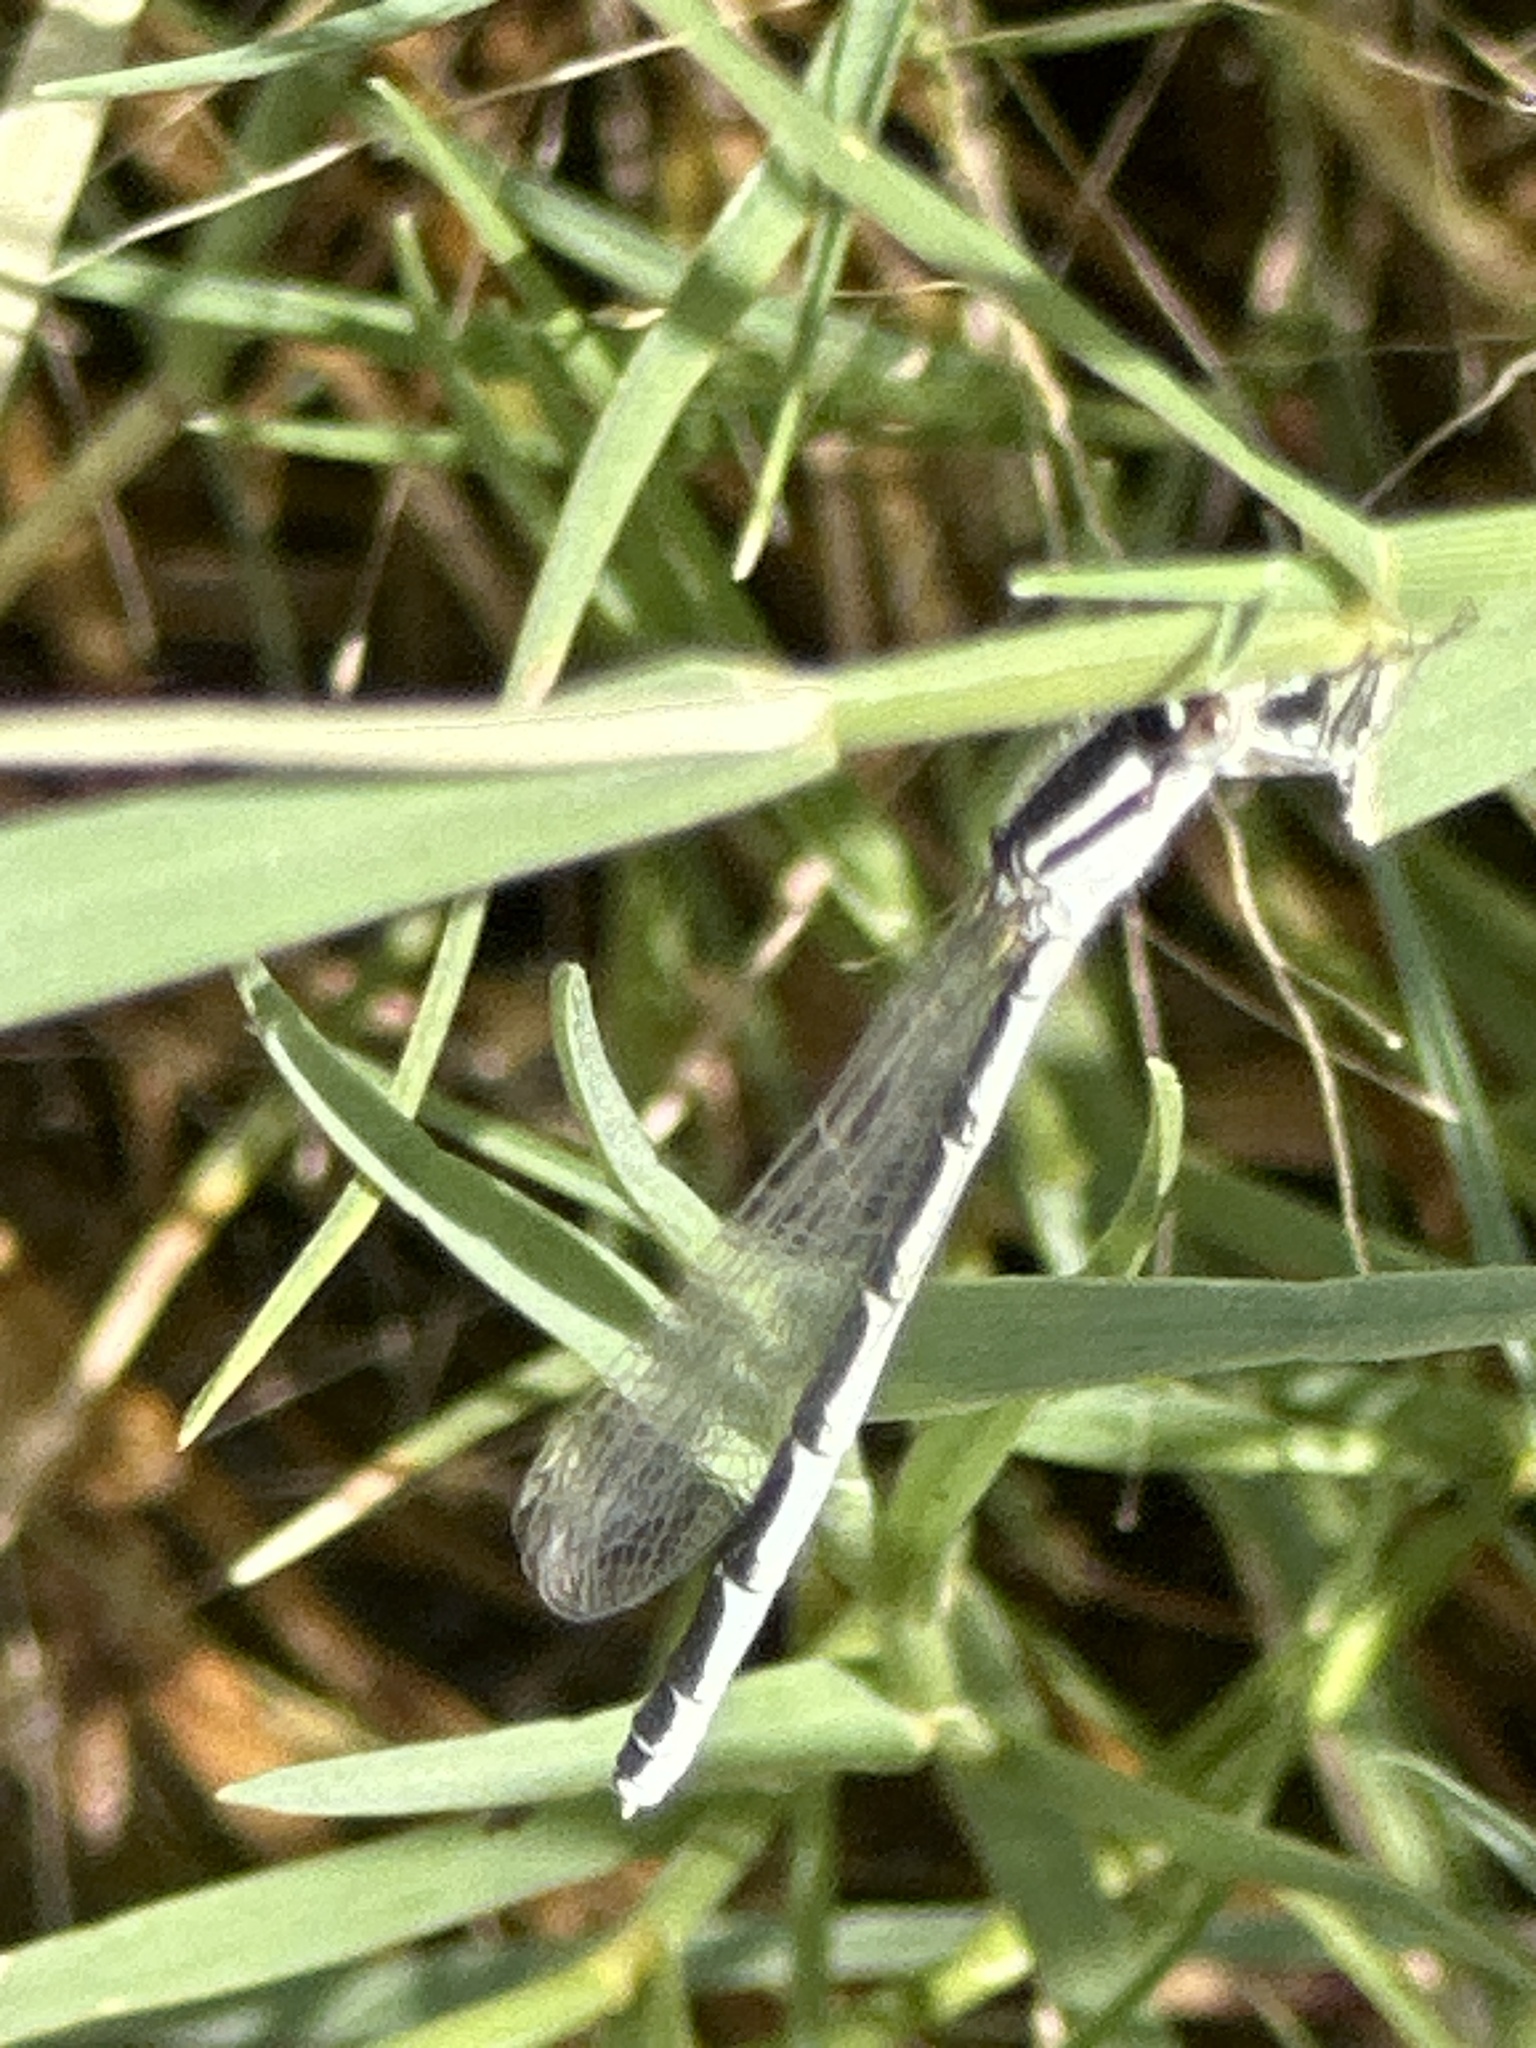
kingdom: Animalia
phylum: Arthropoda
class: Insecta
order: Odonata
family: Coenagrionidae
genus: Enallagma
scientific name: Enallagma civile
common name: Damselfly
